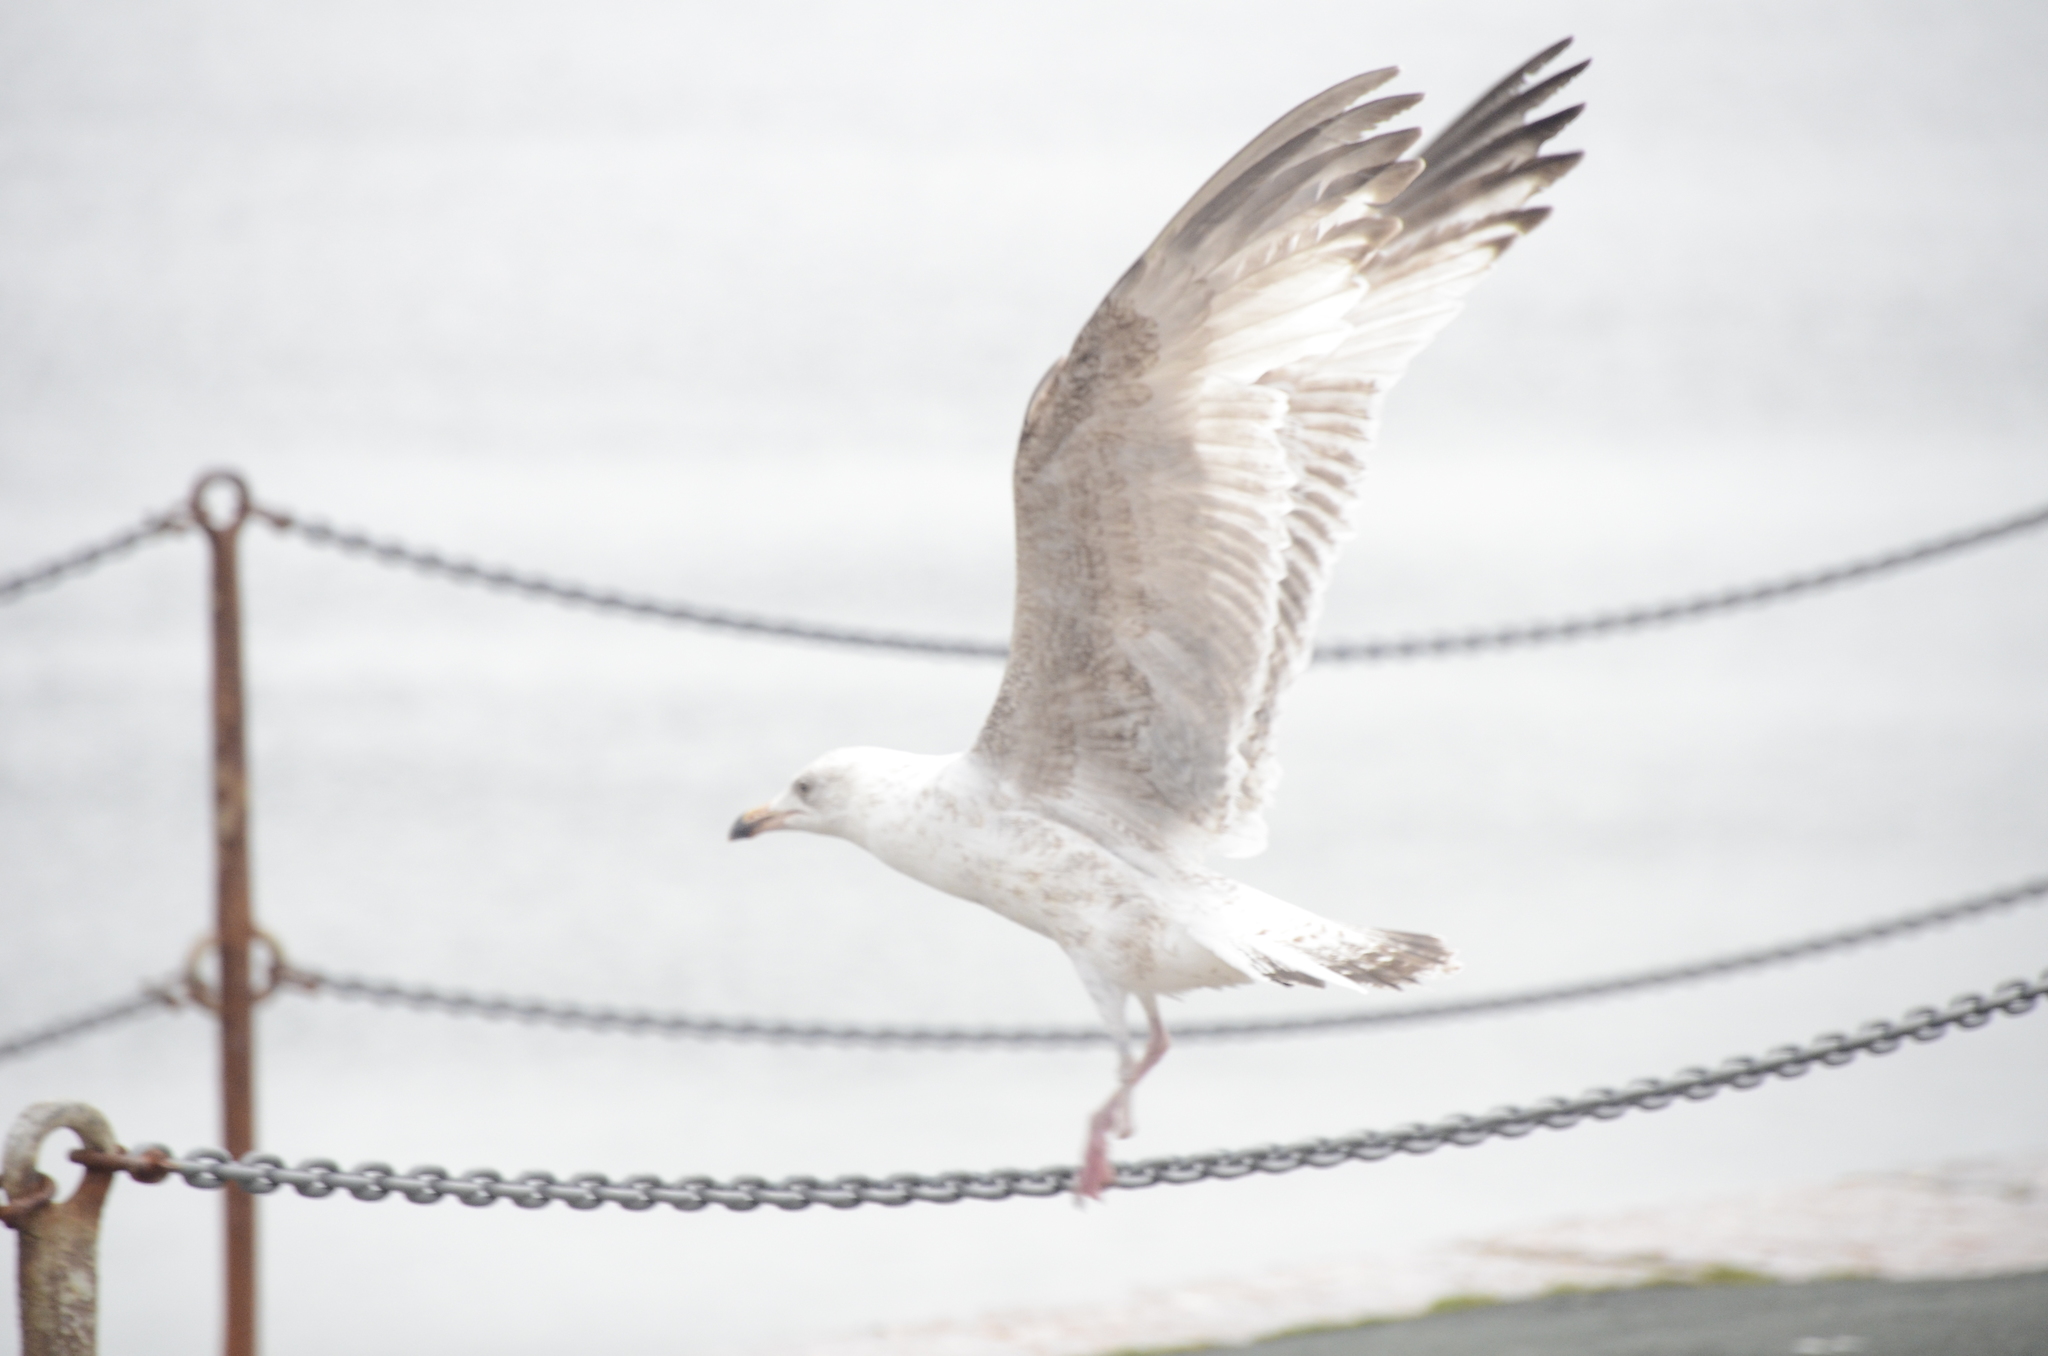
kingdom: Animalia
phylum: Chordata
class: Aves
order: Charadriiformes
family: Laridae
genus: Larus
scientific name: Larus argentatus
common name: Herring gull
